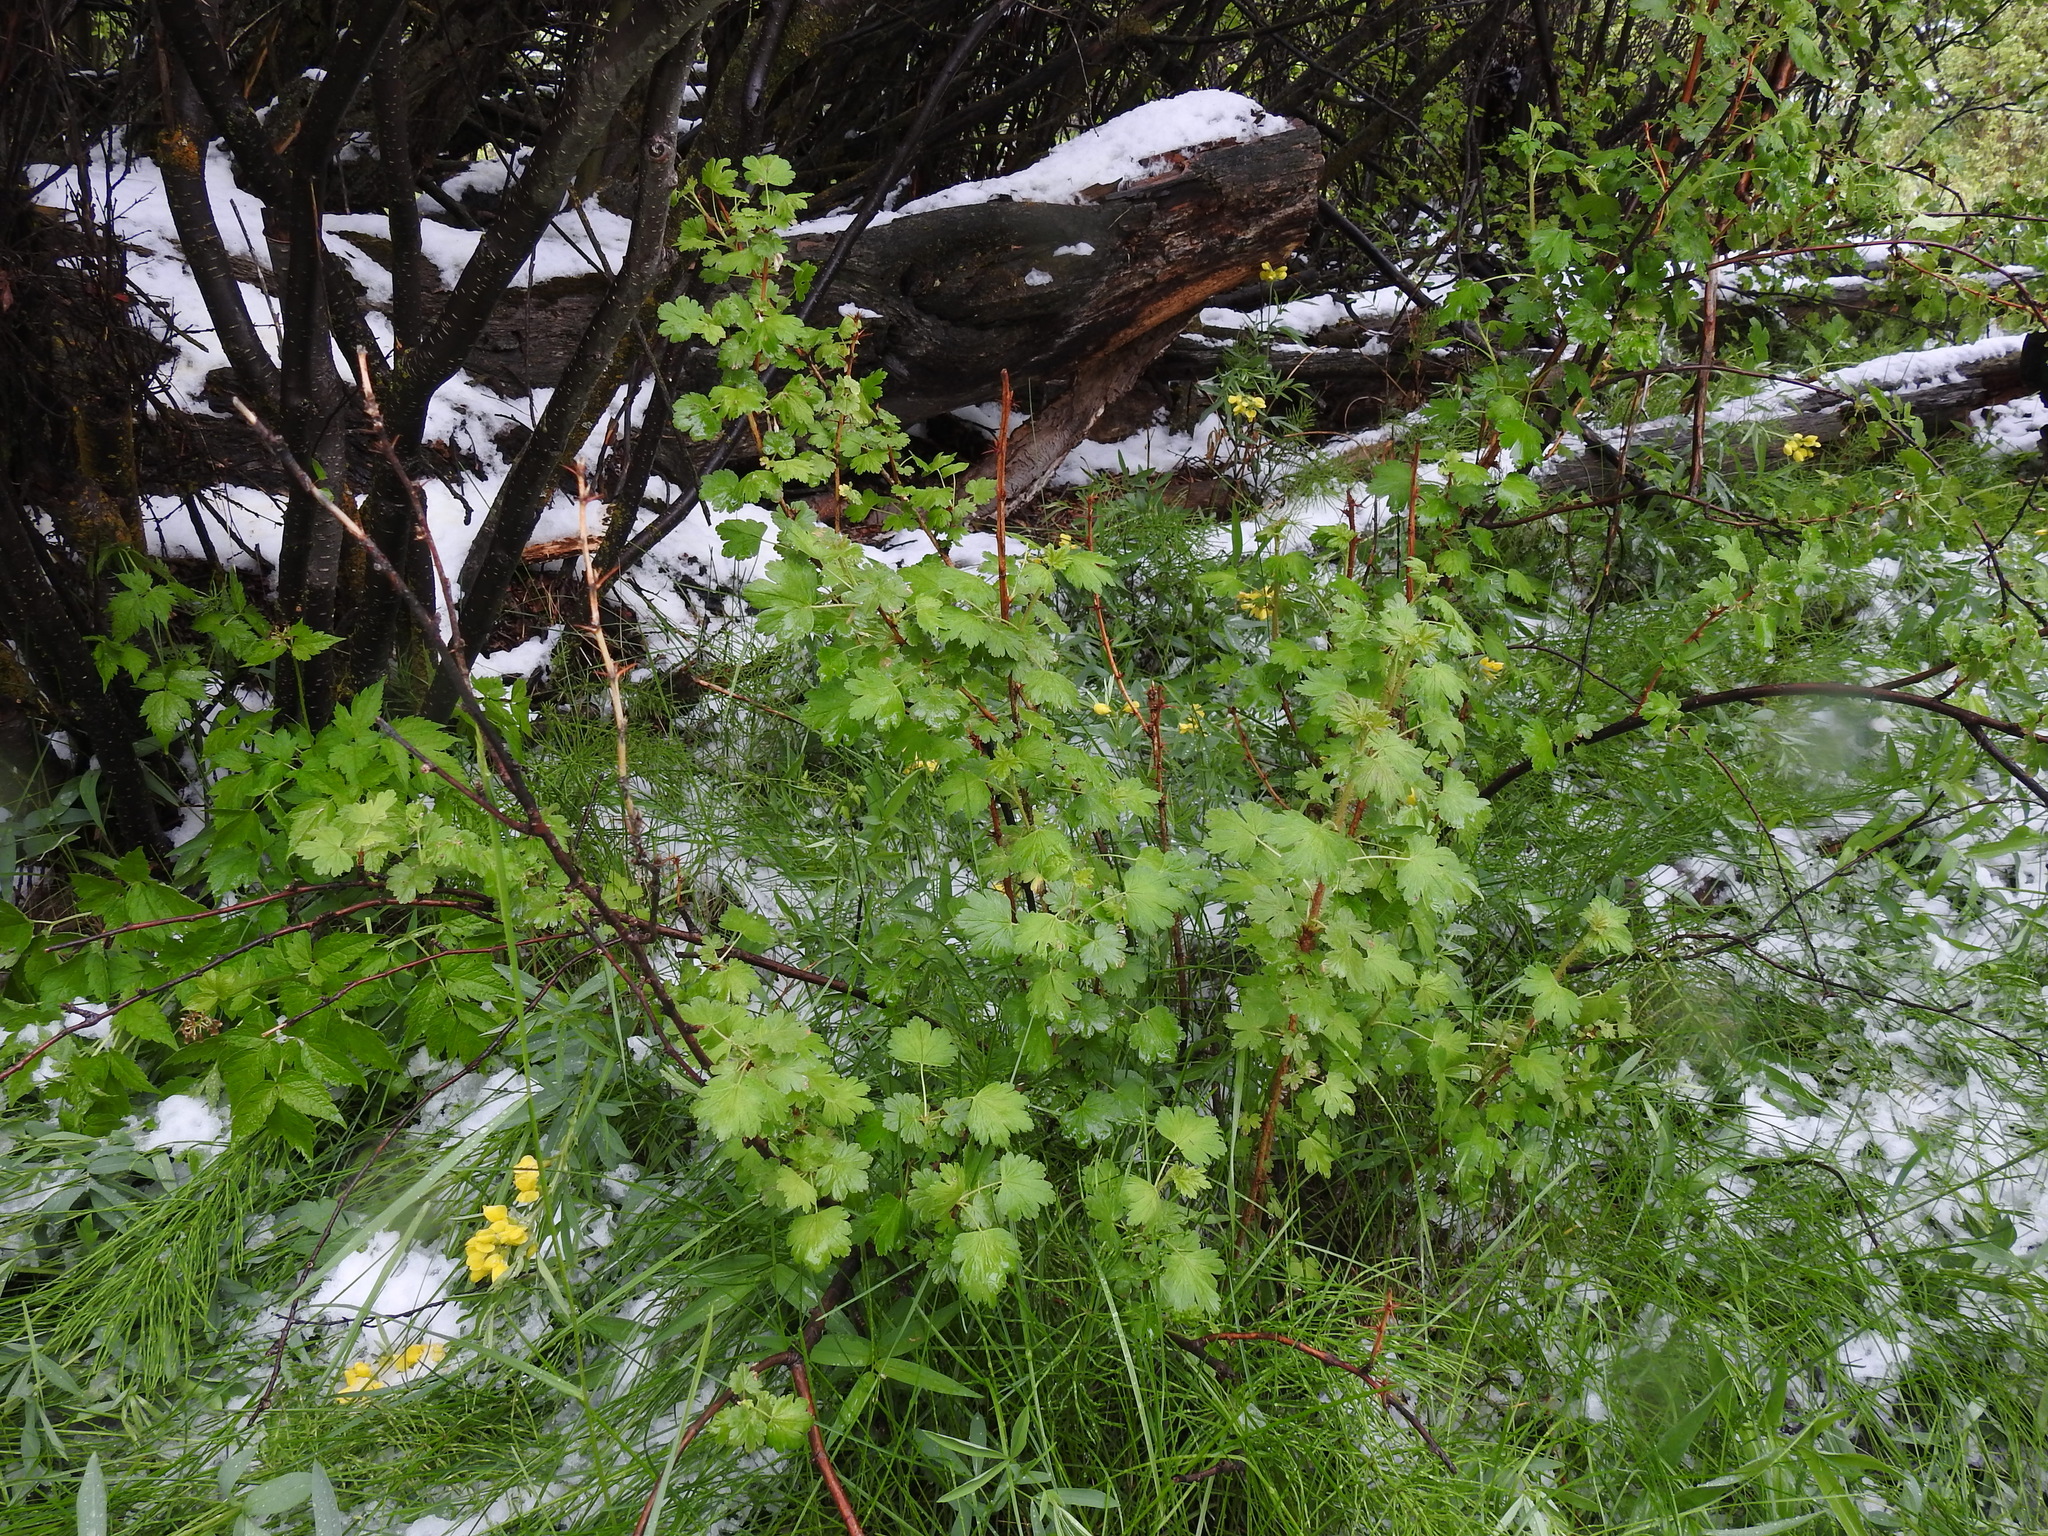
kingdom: Plantae
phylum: Tracheophyta
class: Magnoliopsida
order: Saxifragales
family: Grossulariaceae
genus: Ribes
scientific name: Ribes lacustre
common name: Black gooseberry
